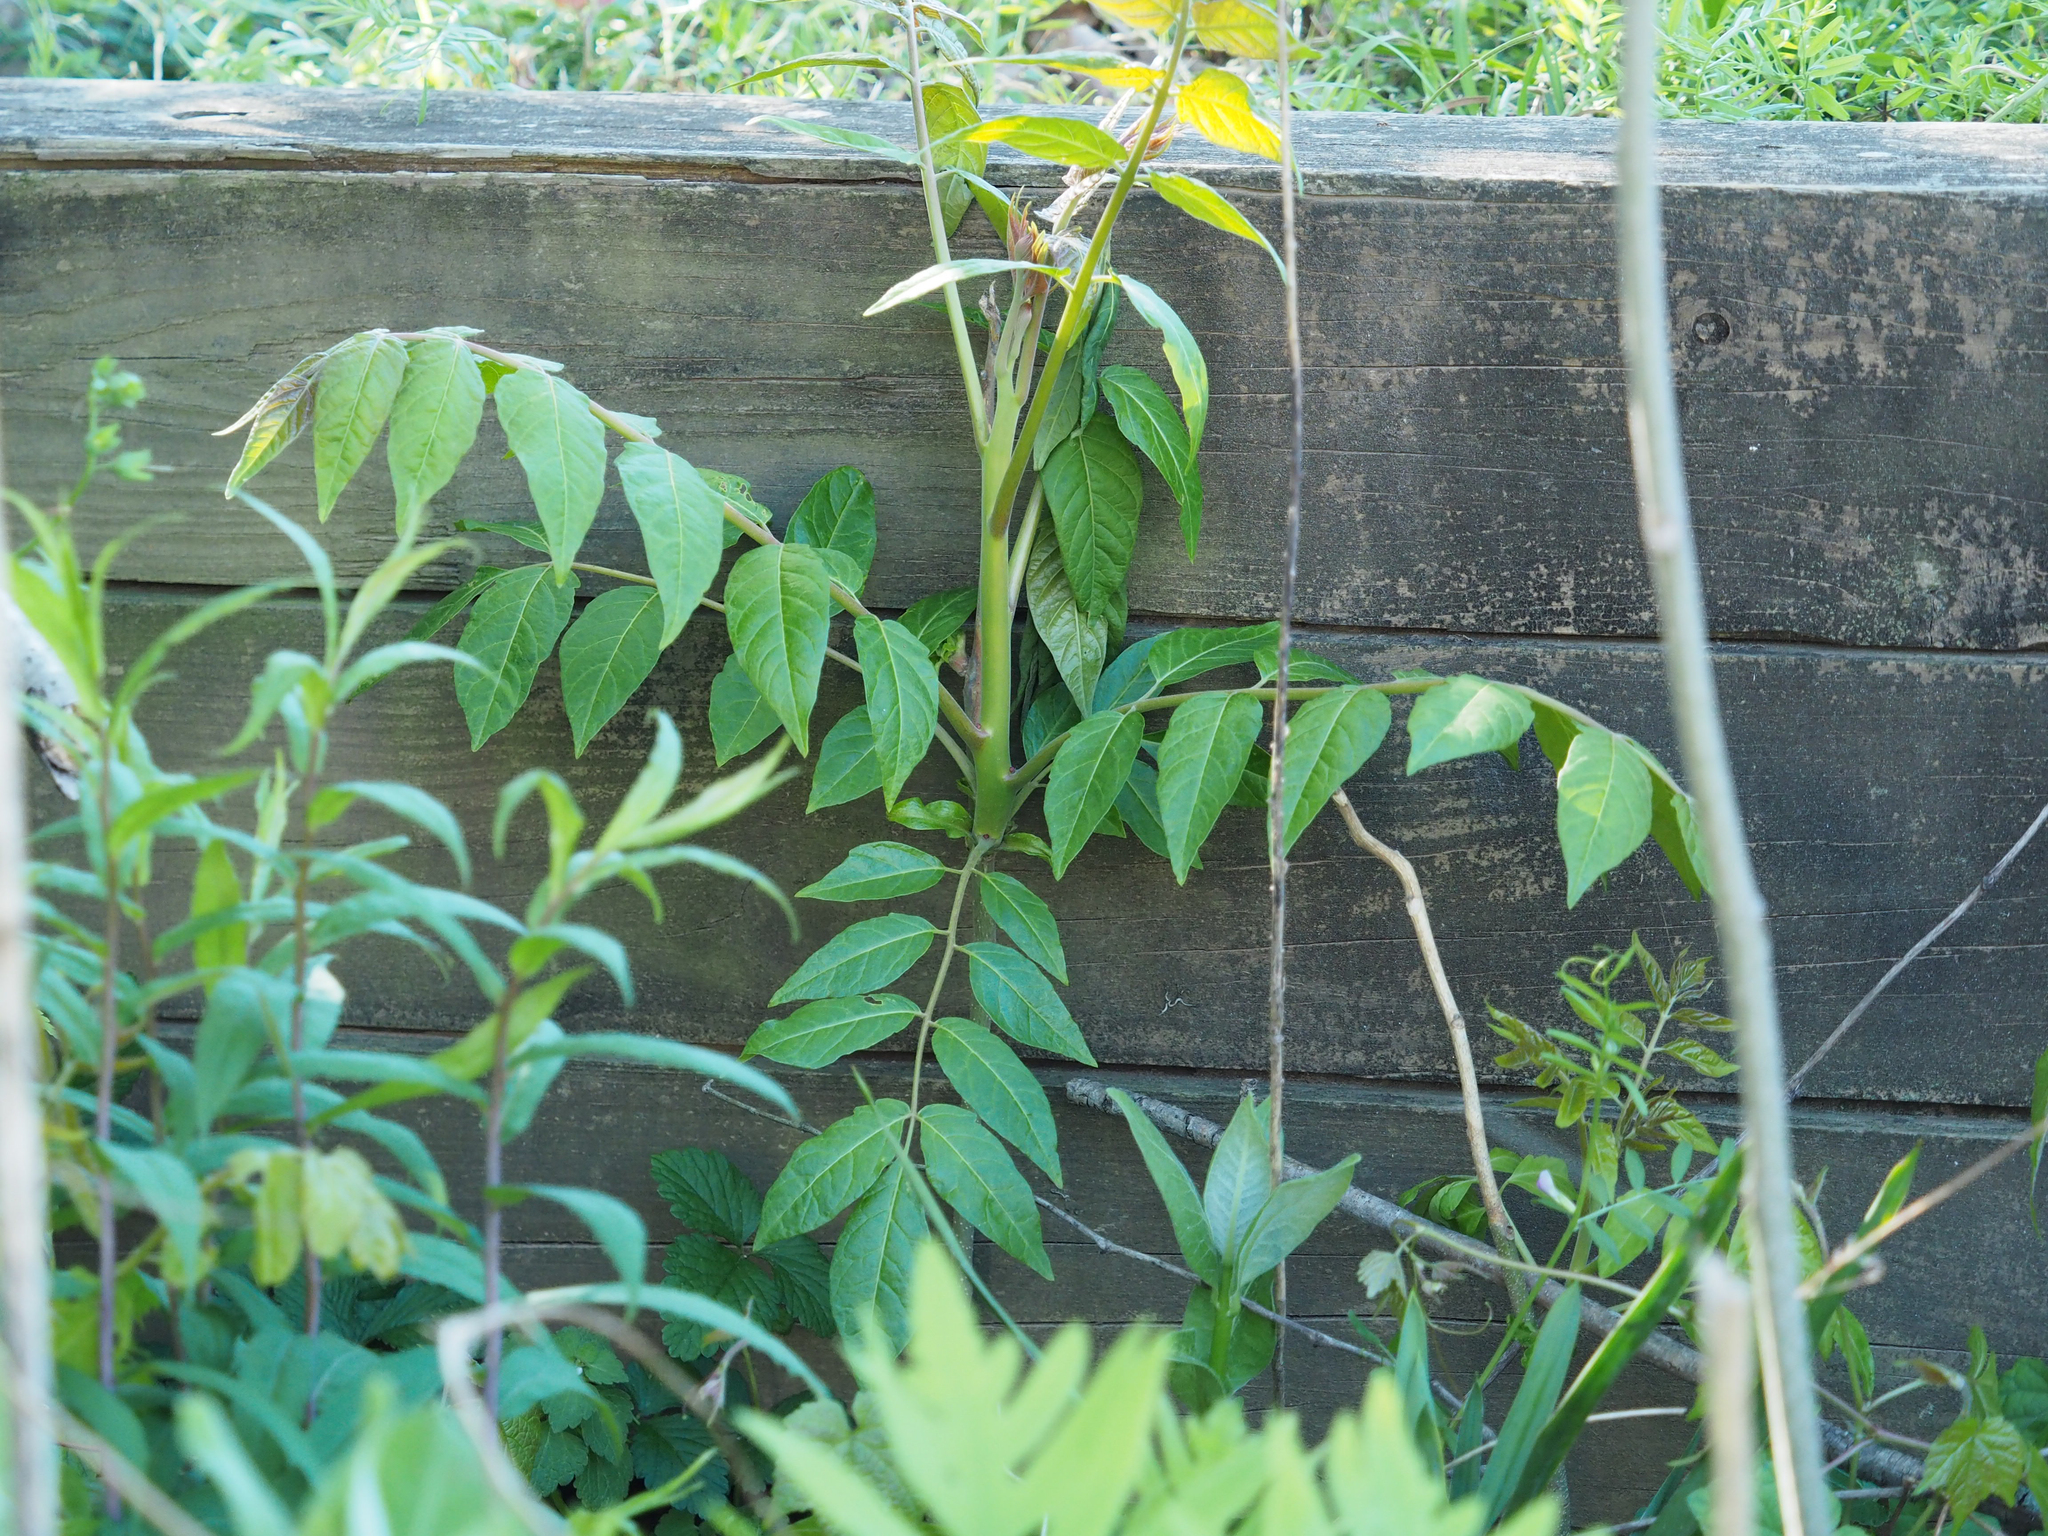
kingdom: Plantae
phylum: Tracheophyta
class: Magnoliopsida
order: Sapindales
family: Simaroubaceae
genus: Ailanthus
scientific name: Ailanthus altissima
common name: Tree-of-heaven
